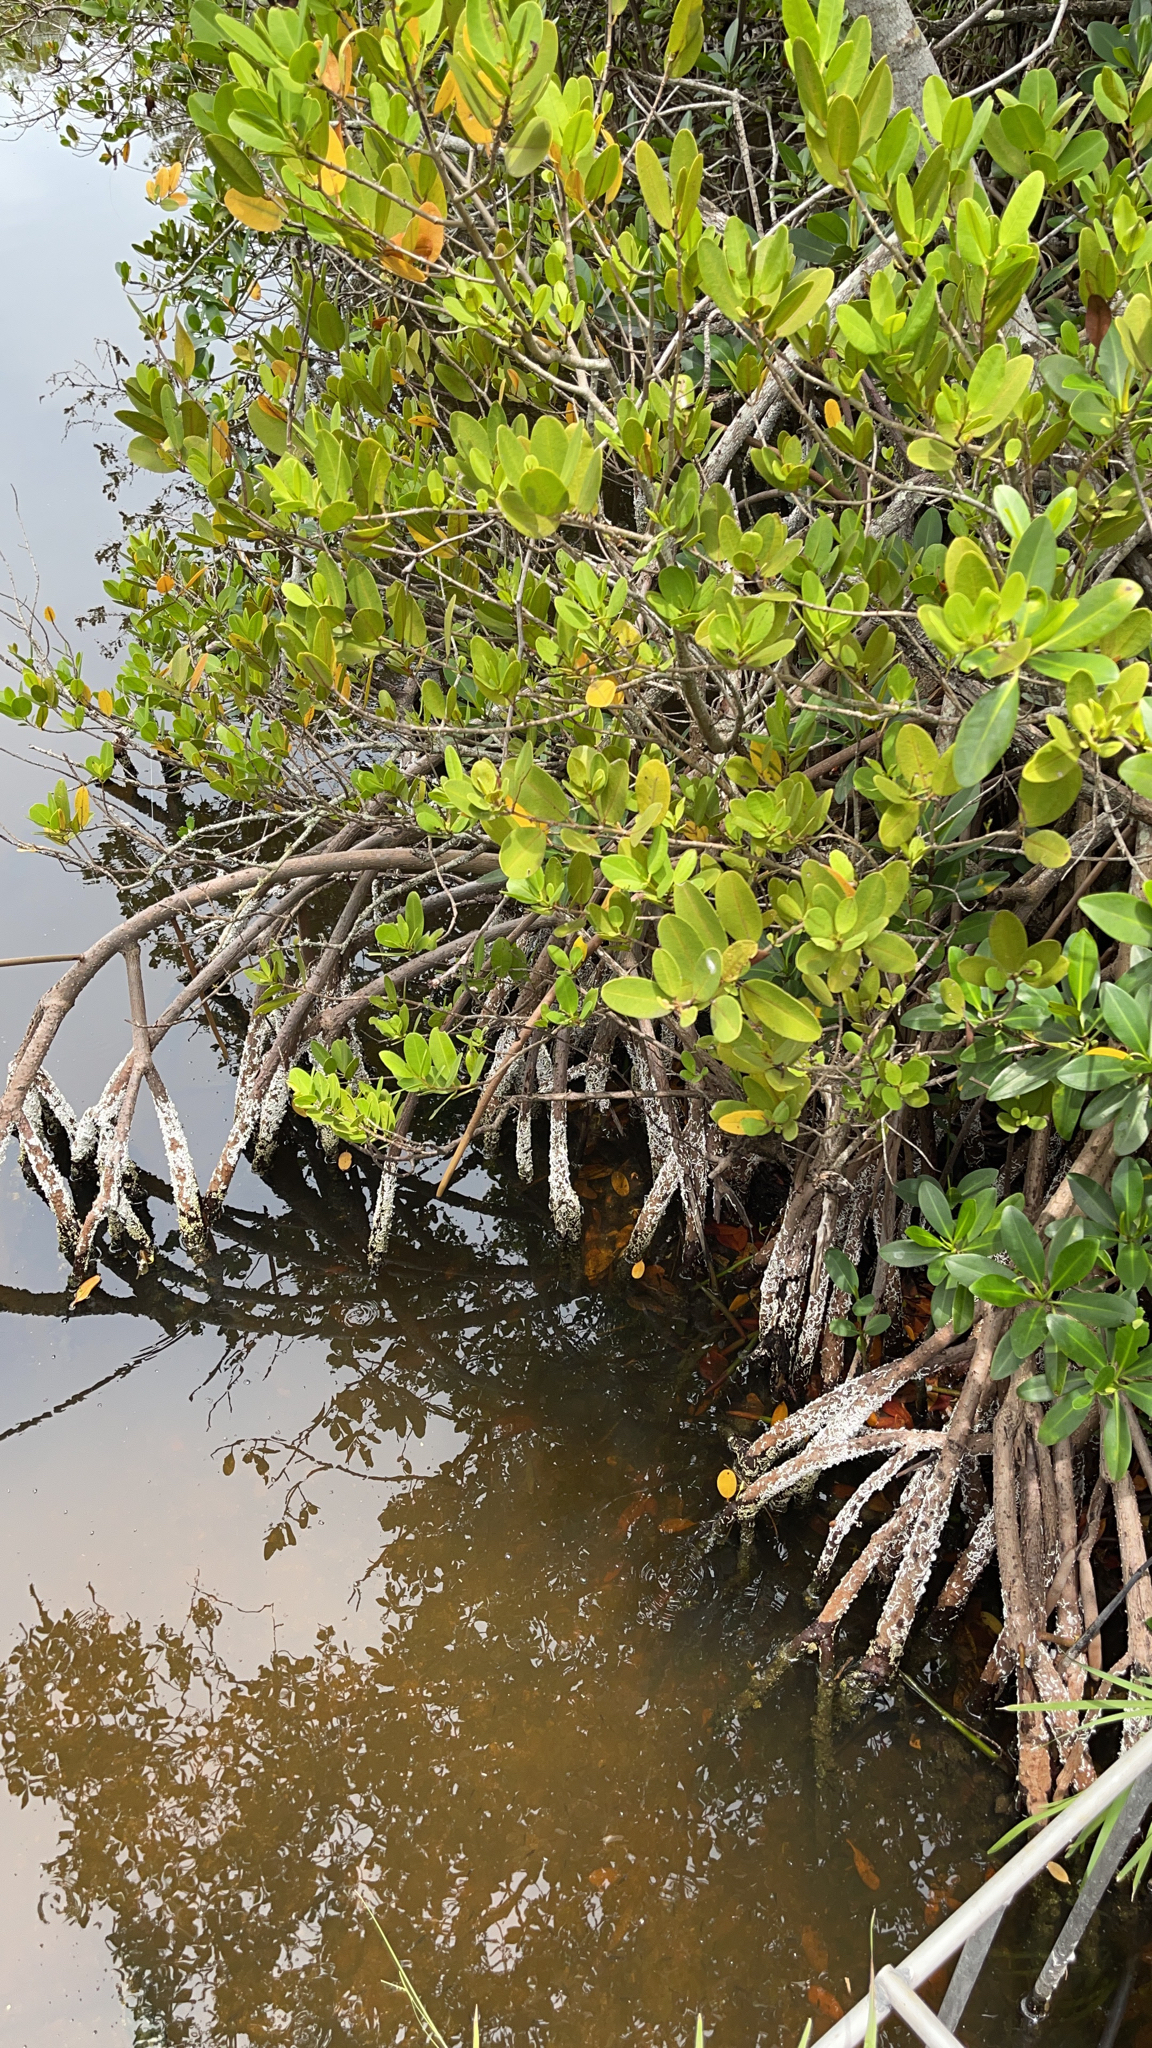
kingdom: Plantae
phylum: Tracheophyta
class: Magnoliopsida
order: Malpighiales
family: Rhizophoraceae
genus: Rhizophora
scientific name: Rhizophora mangle
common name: Red mangrove
